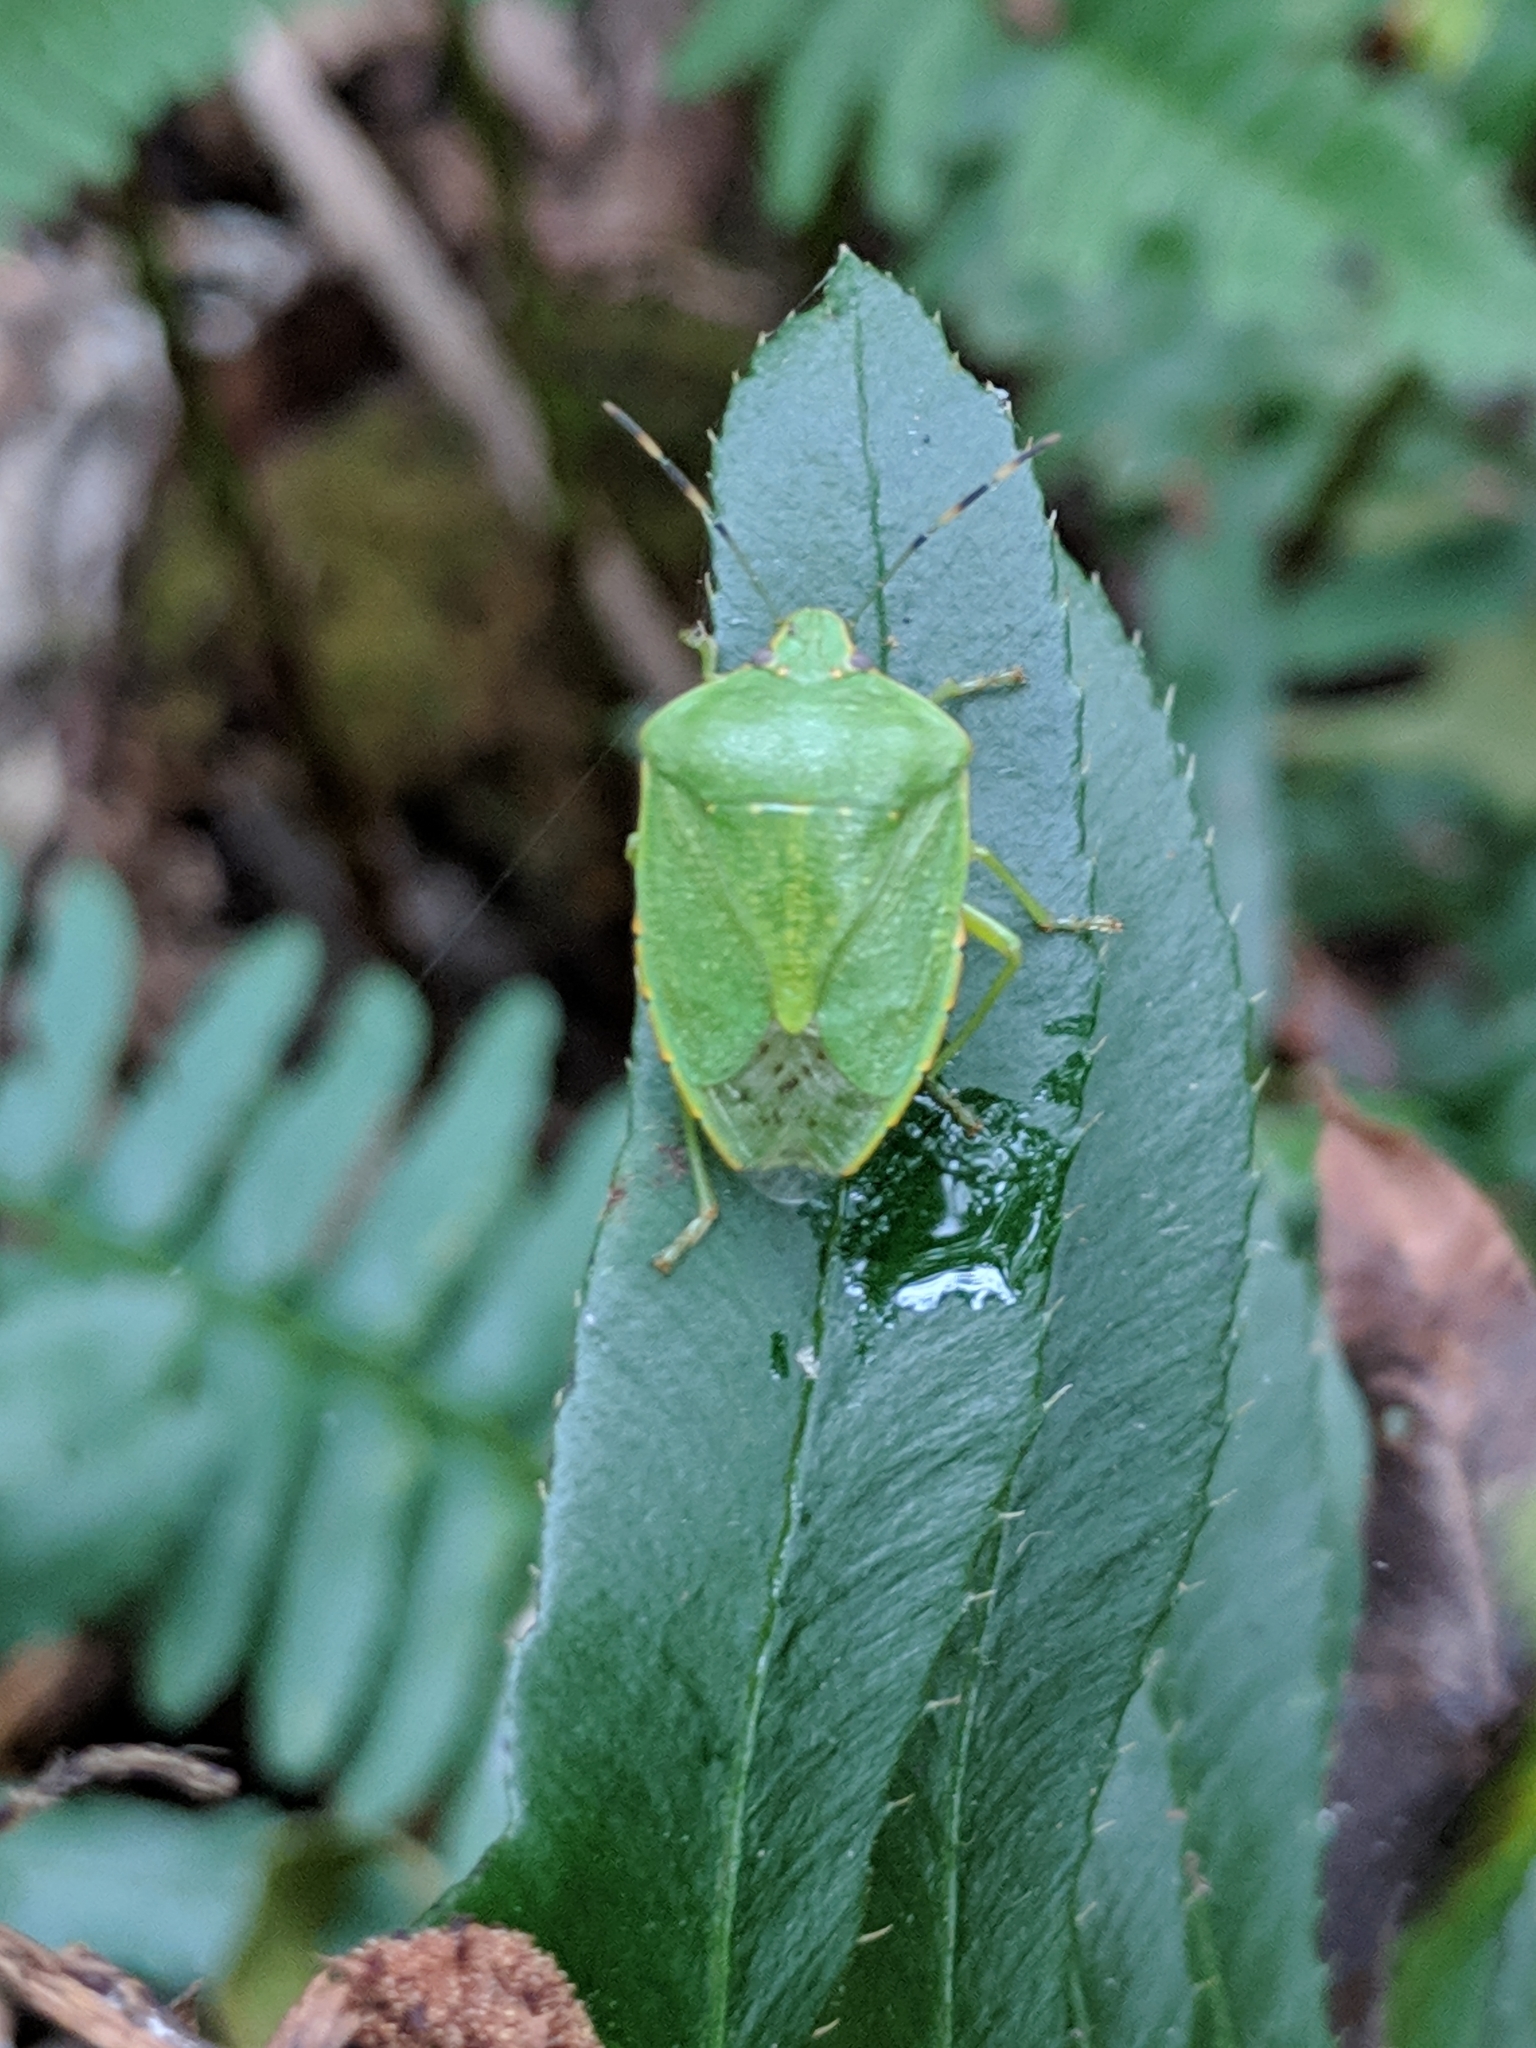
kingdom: Animalia
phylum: Arthropoda
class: Insecta
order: Hemiptera
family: Pentatomidae
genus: Chinavia
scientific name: Chinavia hilaris
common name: Green stink bug
